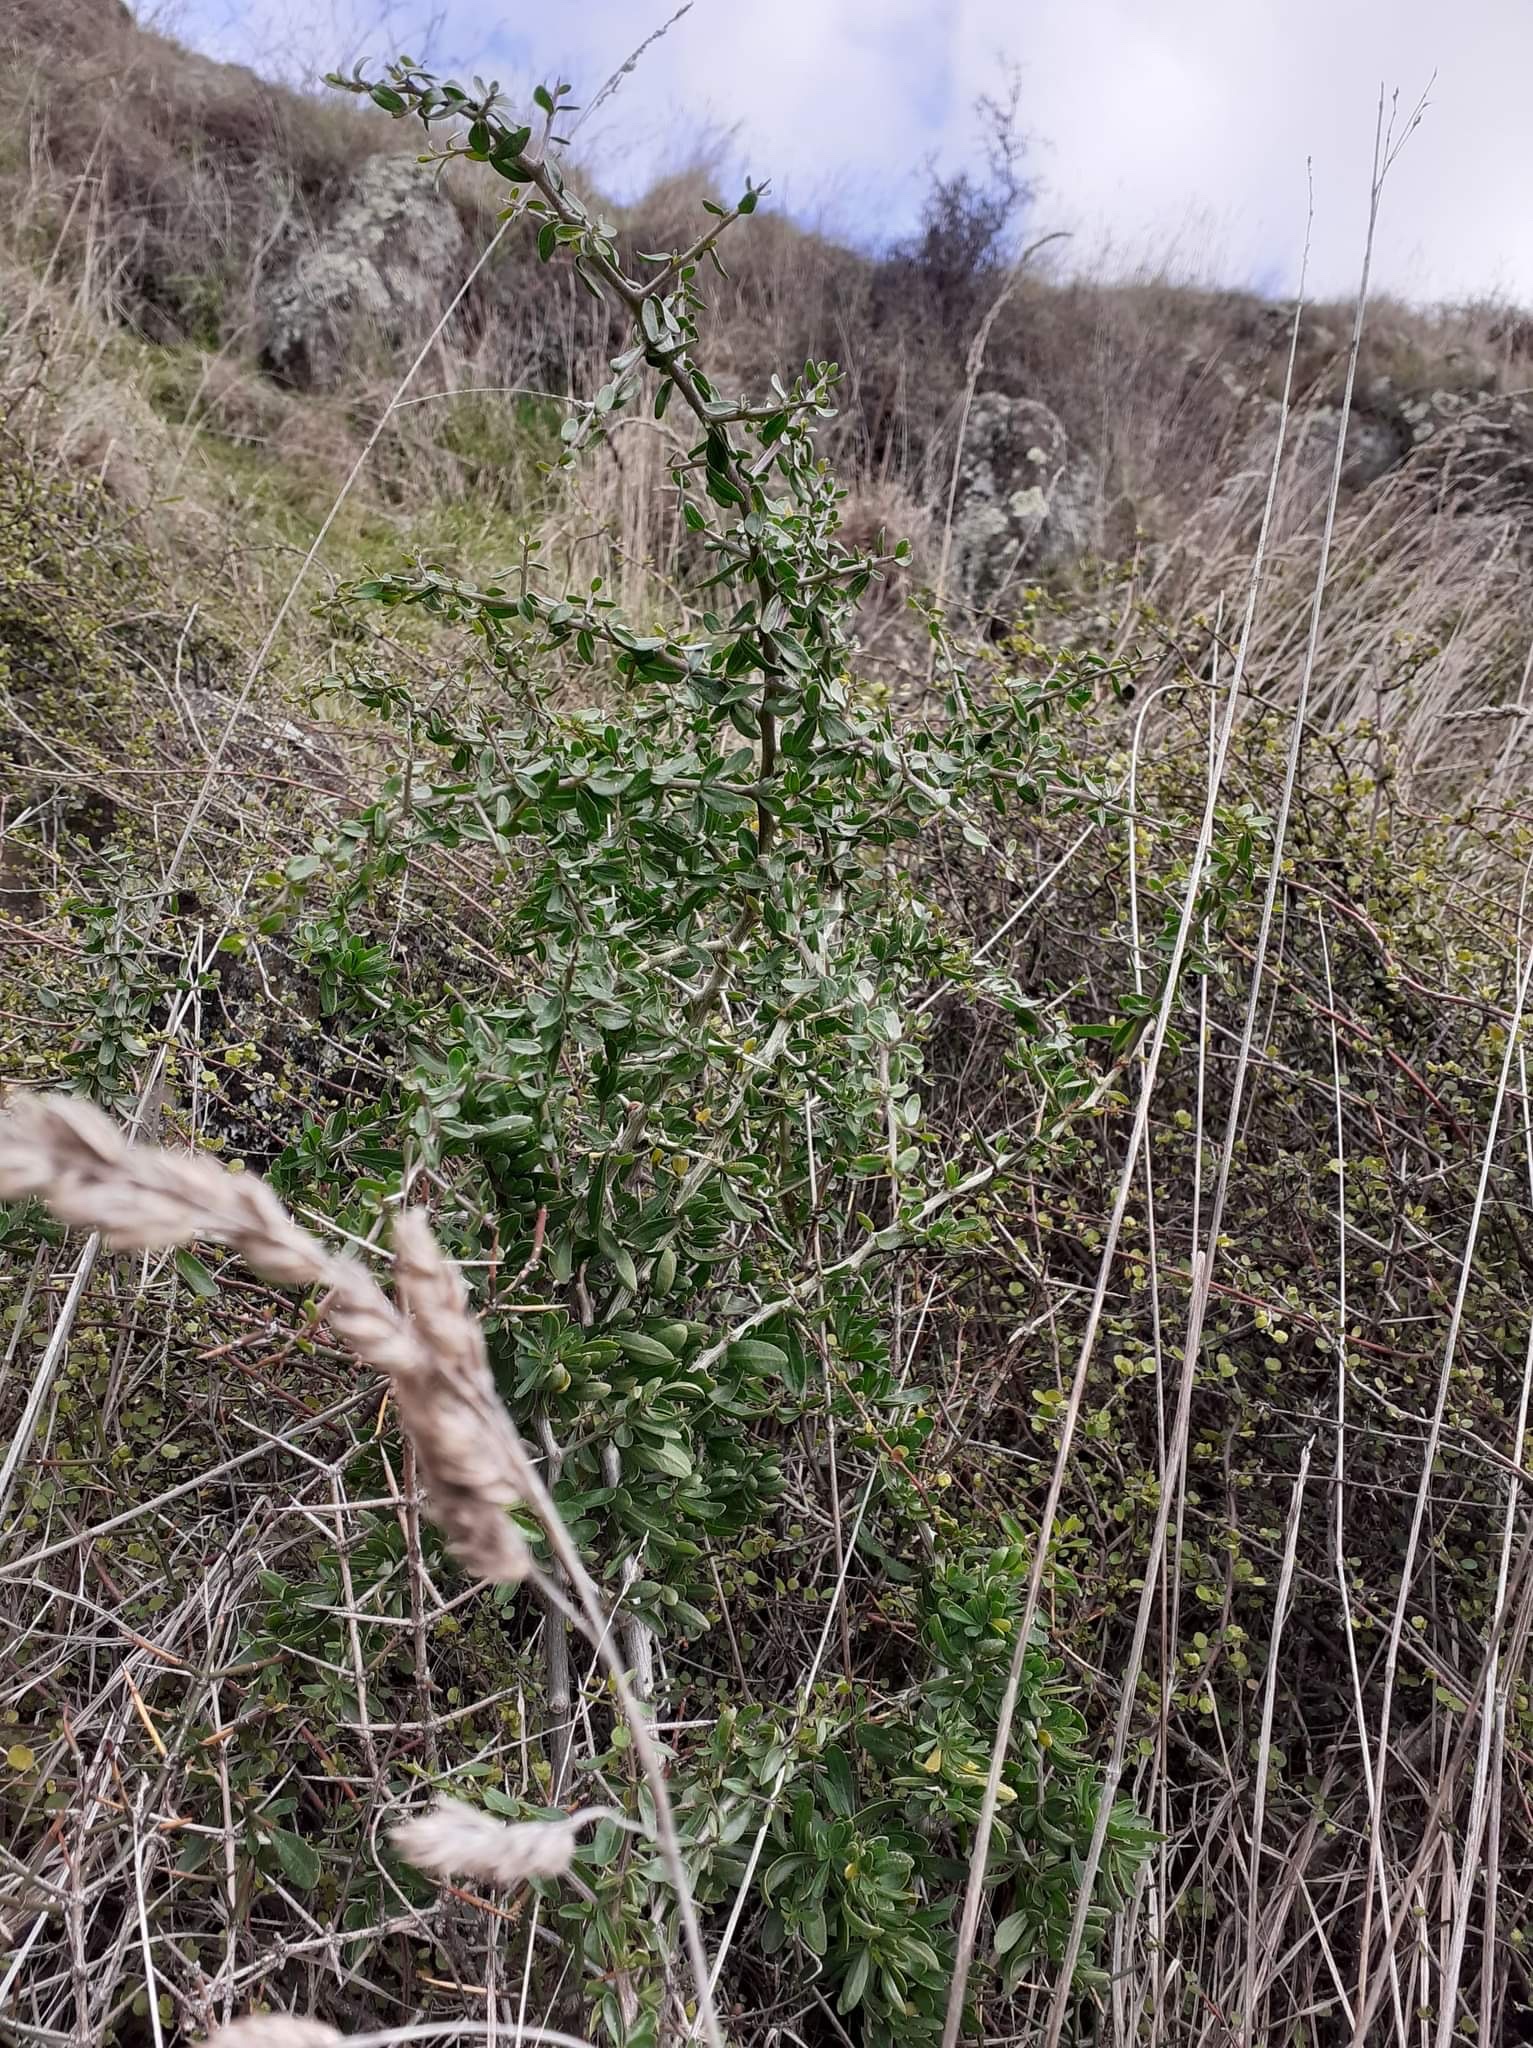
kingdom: Plantae
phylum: Tracheophyta
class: Magnoliopsida
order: Solanales
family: Solanaceae
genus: Lycium
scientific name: Lycium ferocissimum
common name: African boxthorn
